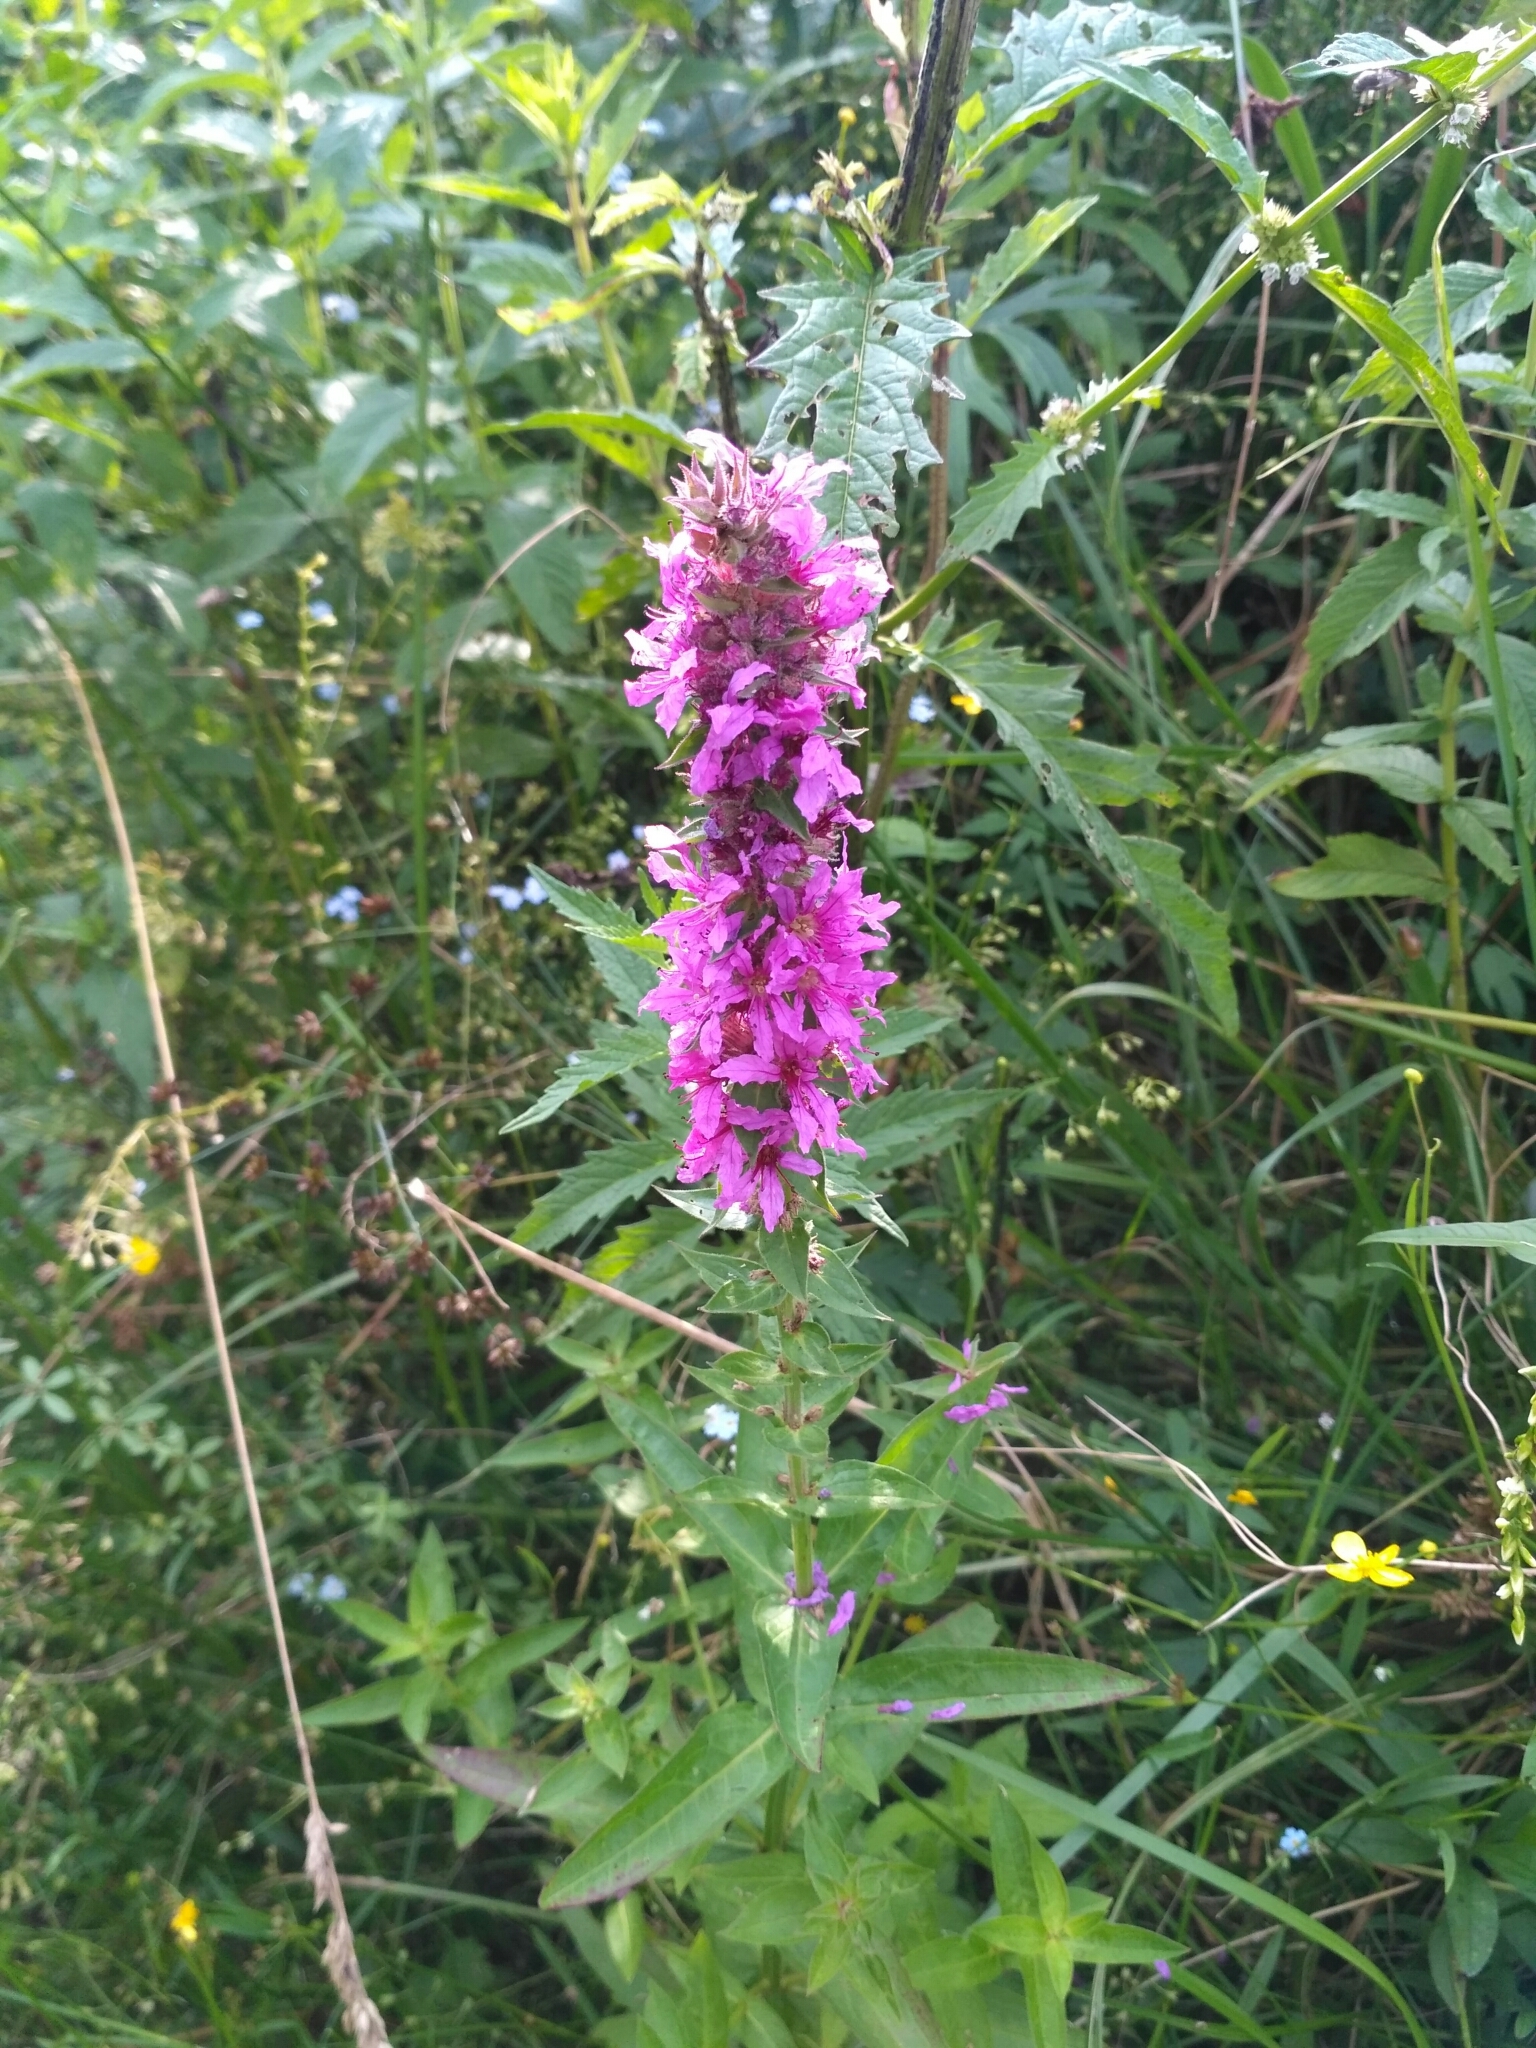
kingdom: Plantae
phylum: Tracheophyta
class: Magnoliopsida
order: Myrtales
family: Lythraceae
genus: Lythrum
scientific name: Lythrum salicaria
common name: Purple loosestrife
